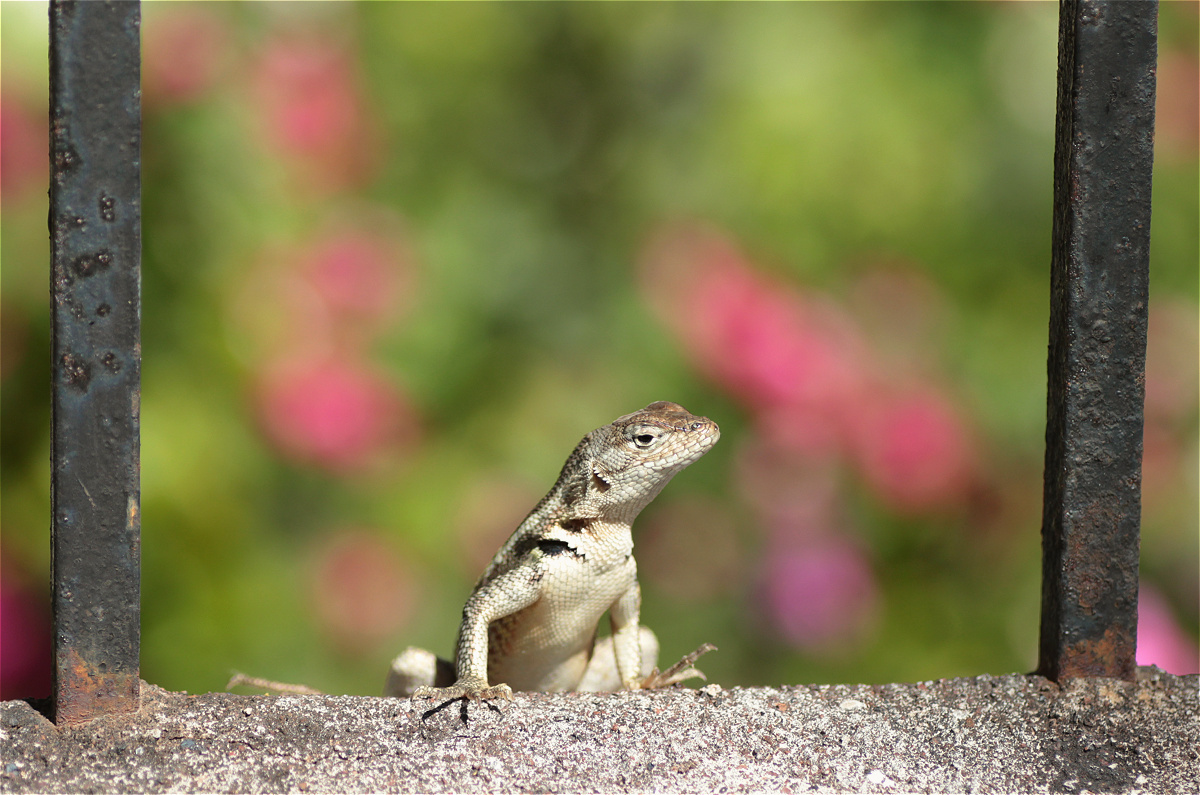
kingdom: Animalia
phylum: Chordata
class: Squamata
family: Tropiduridae
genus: Microlophus
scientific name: Microlophus bivittatus
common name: San cristobal lava lizard
